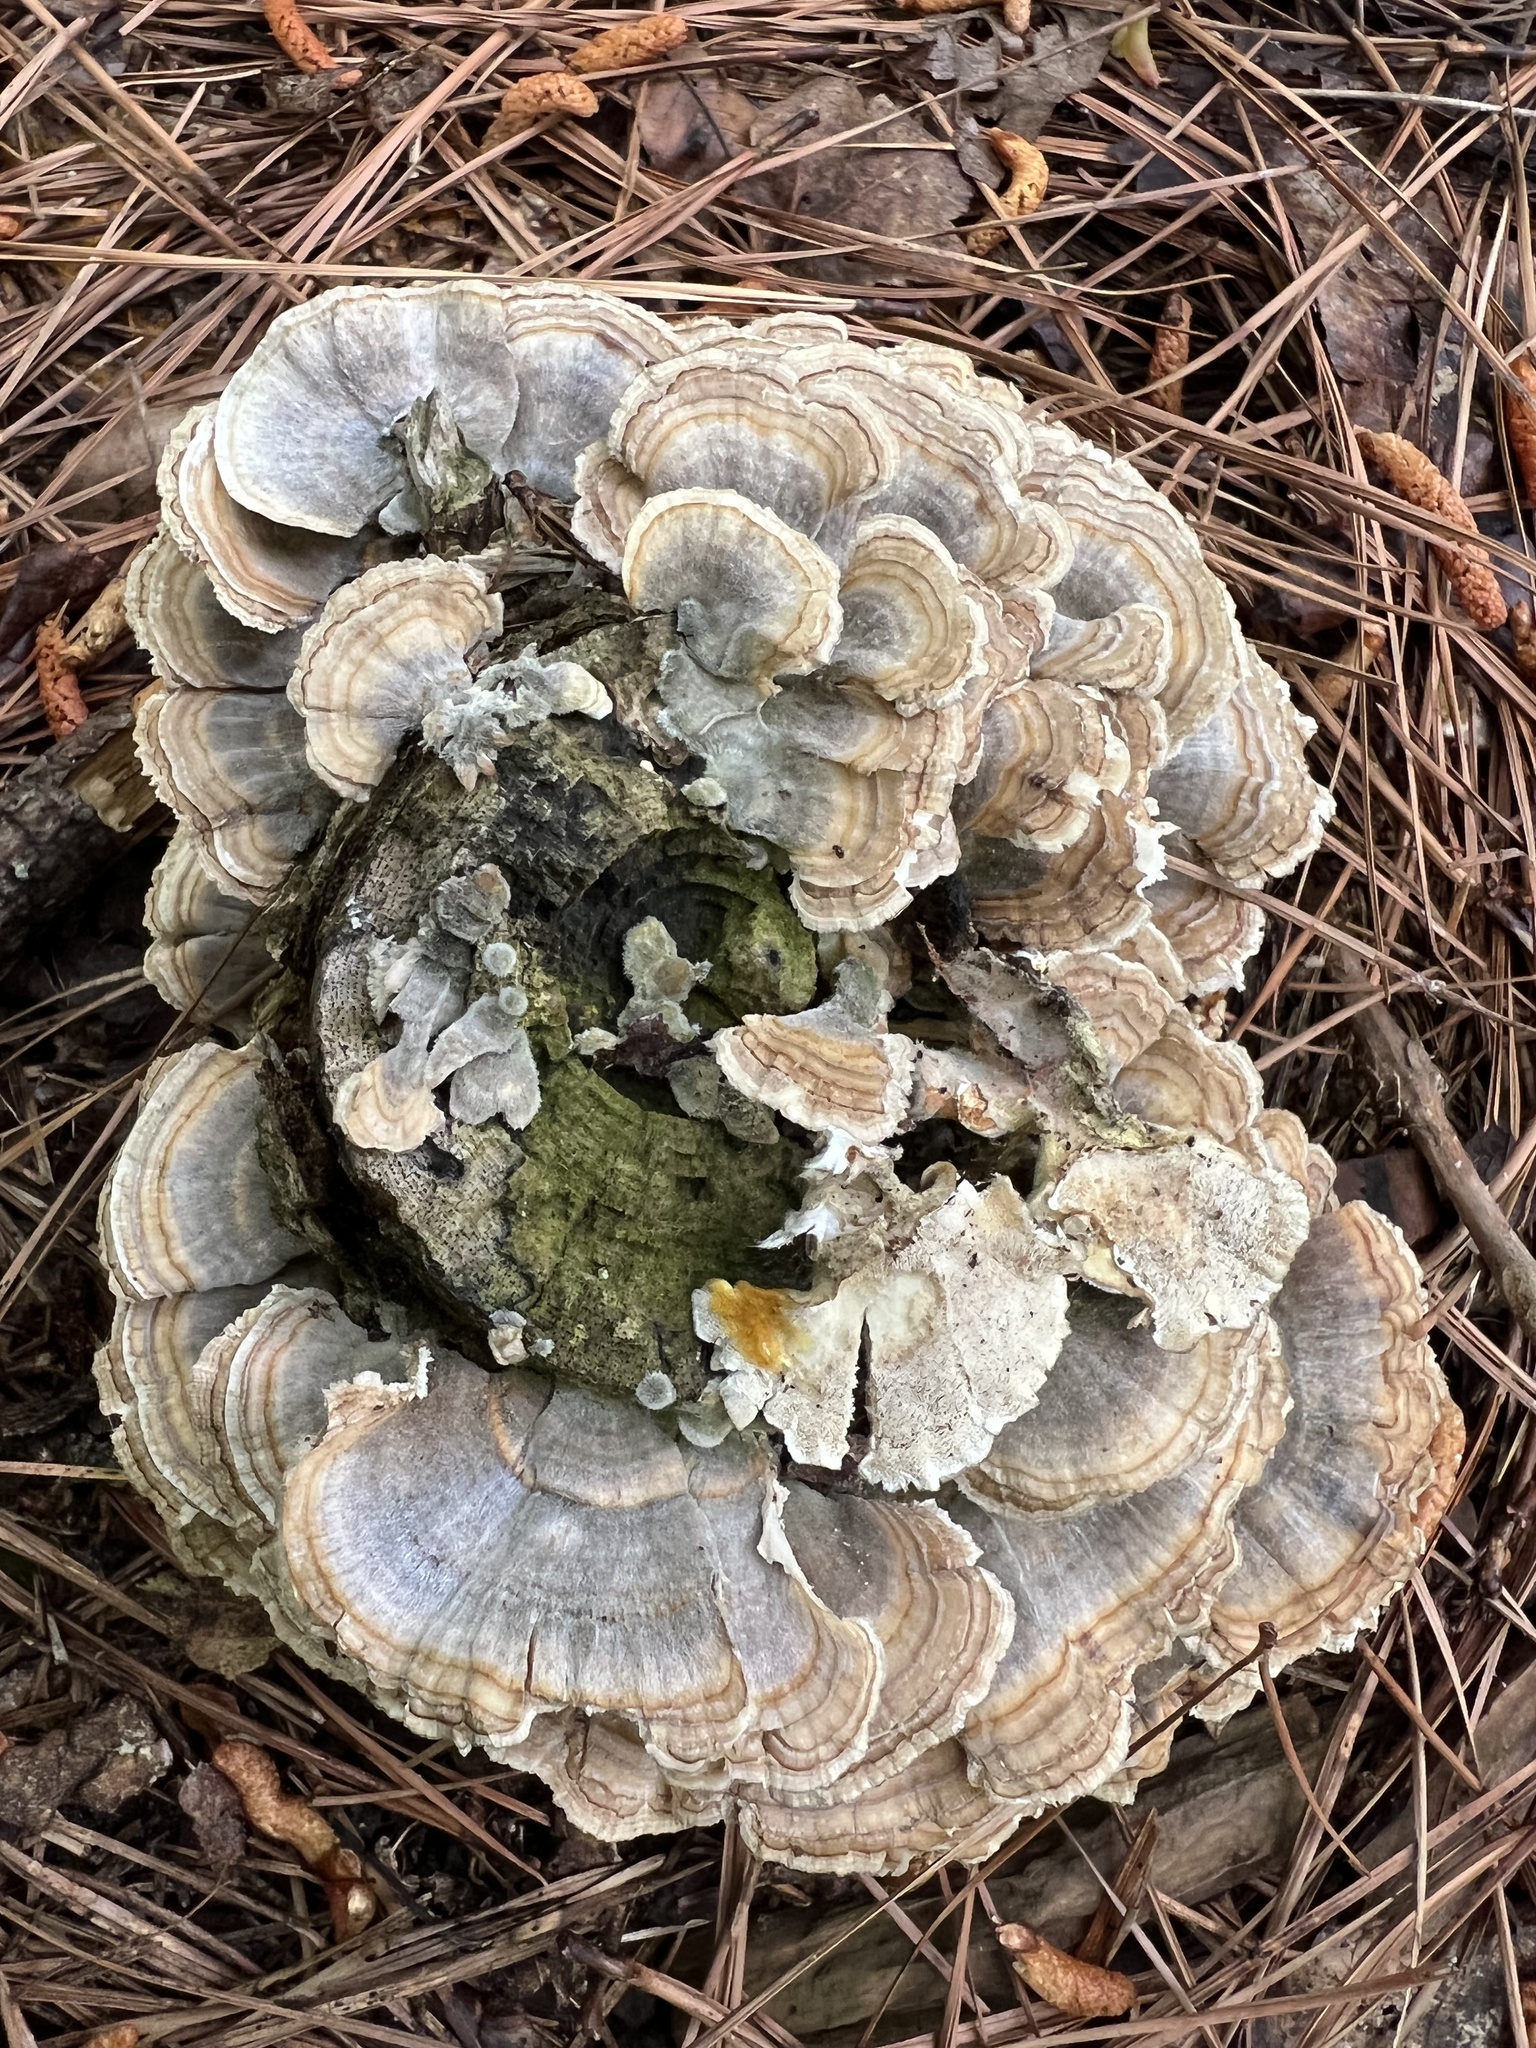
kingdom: Fungi
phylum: Basidiomycota
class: Agaricomycetes
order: Polyporales
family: Polyporaceae
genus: Trametes
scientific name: Trametes versicolor
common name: Turkeytail
